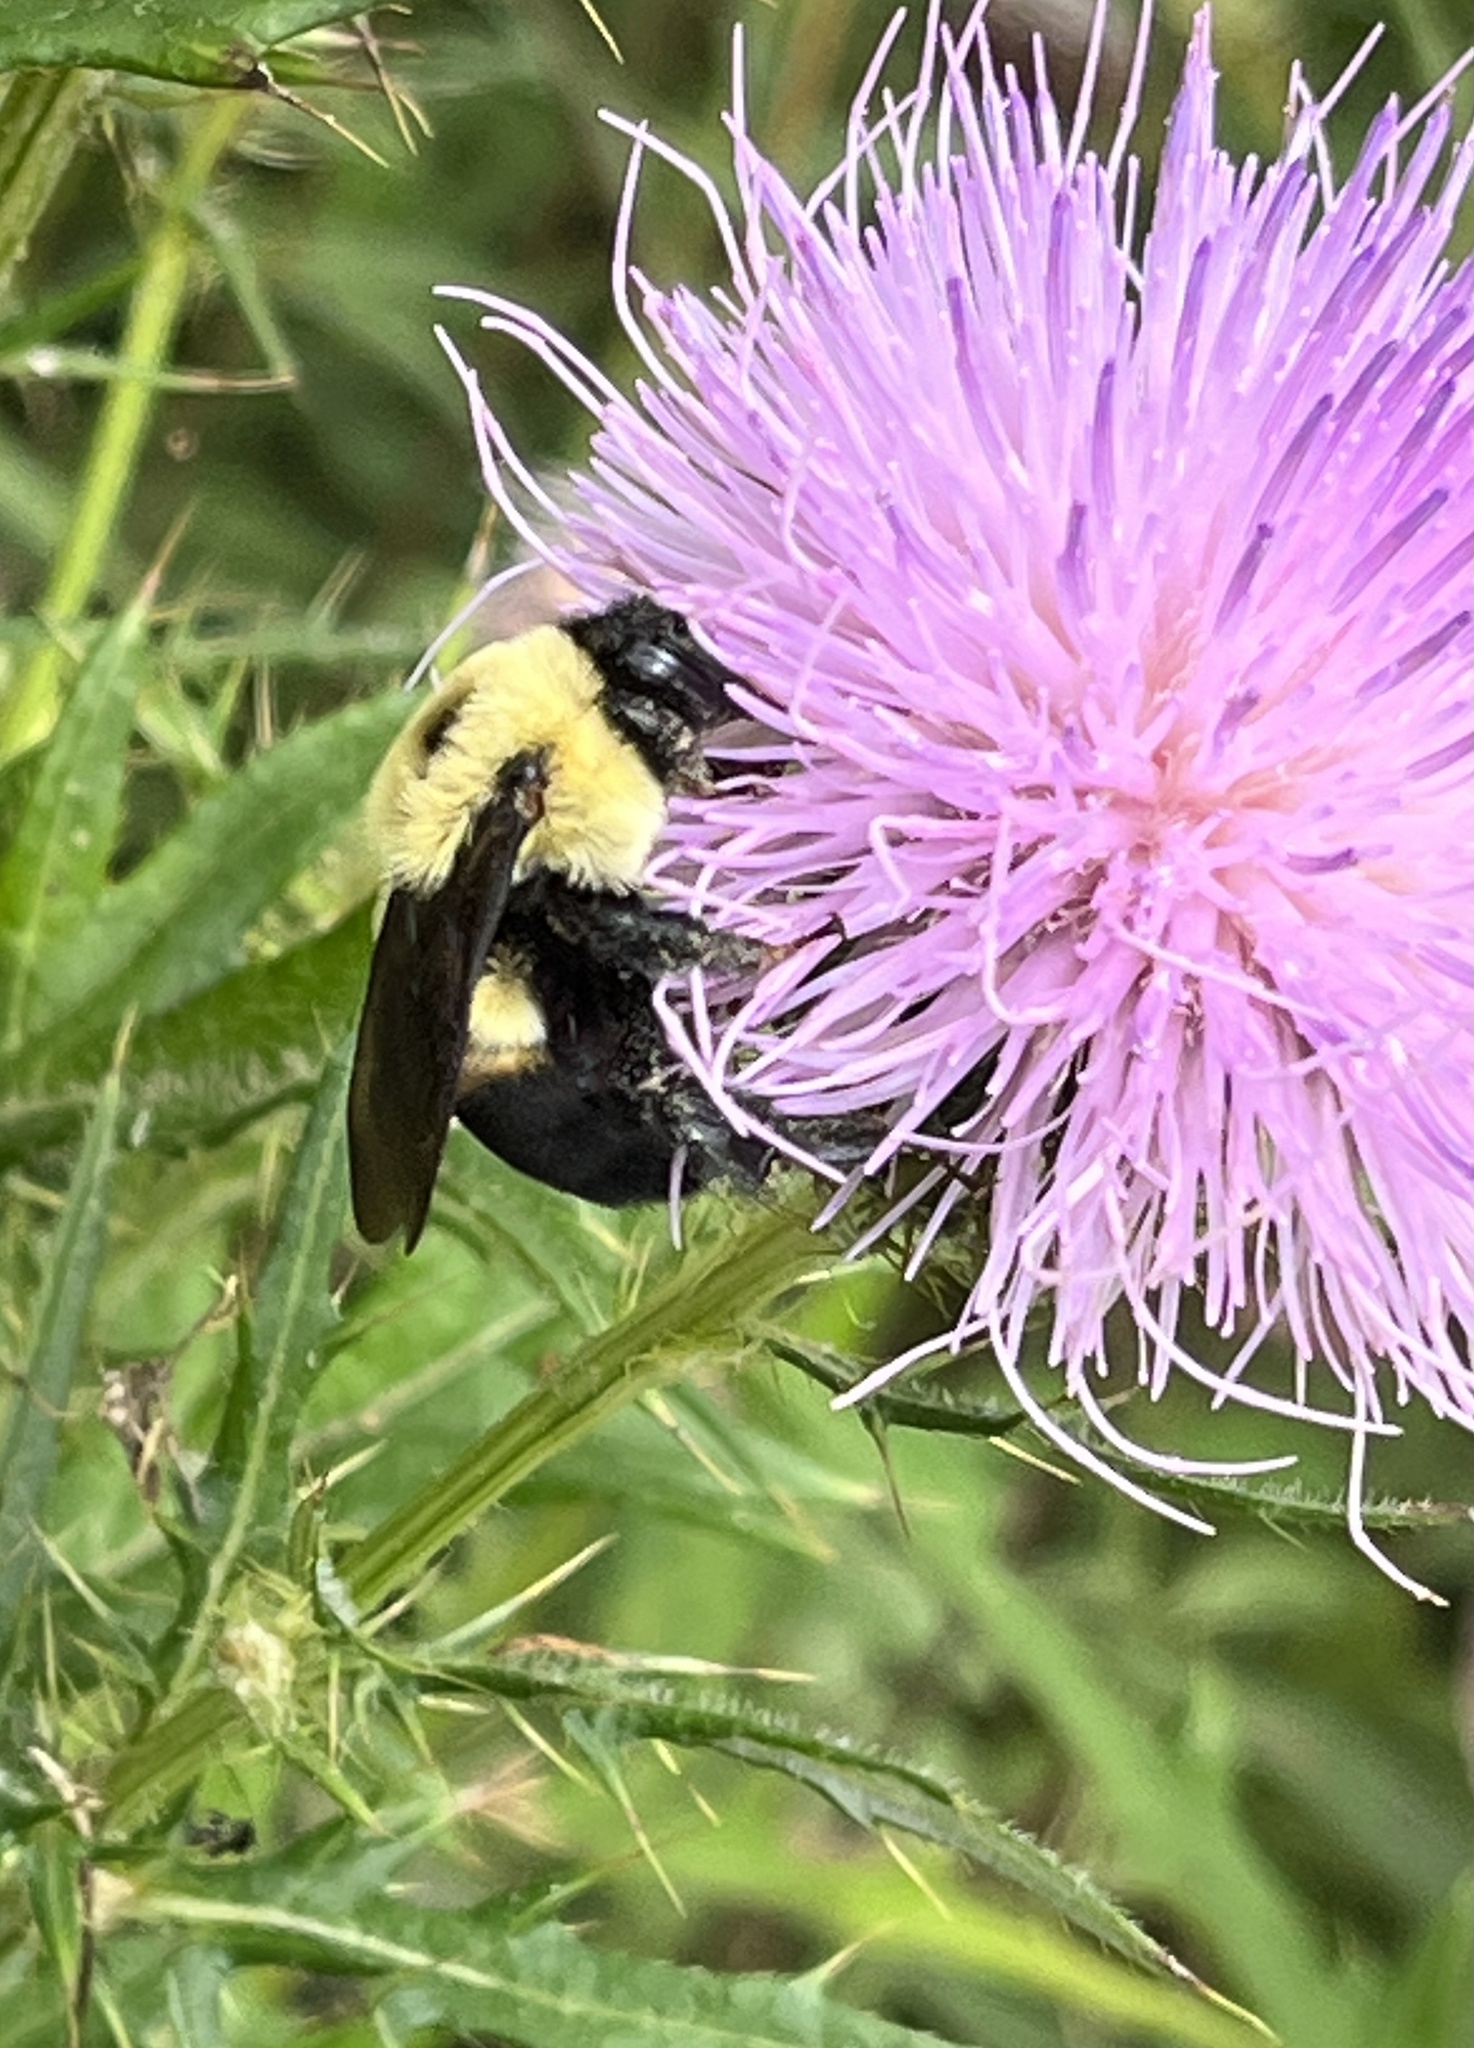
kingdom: Animalia
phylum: Arthropoda
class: Insecta
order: Hymenoptera
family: Apidae
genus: Bombus
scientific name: Bombus griseocollis
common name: Brown-belted bumble bee
